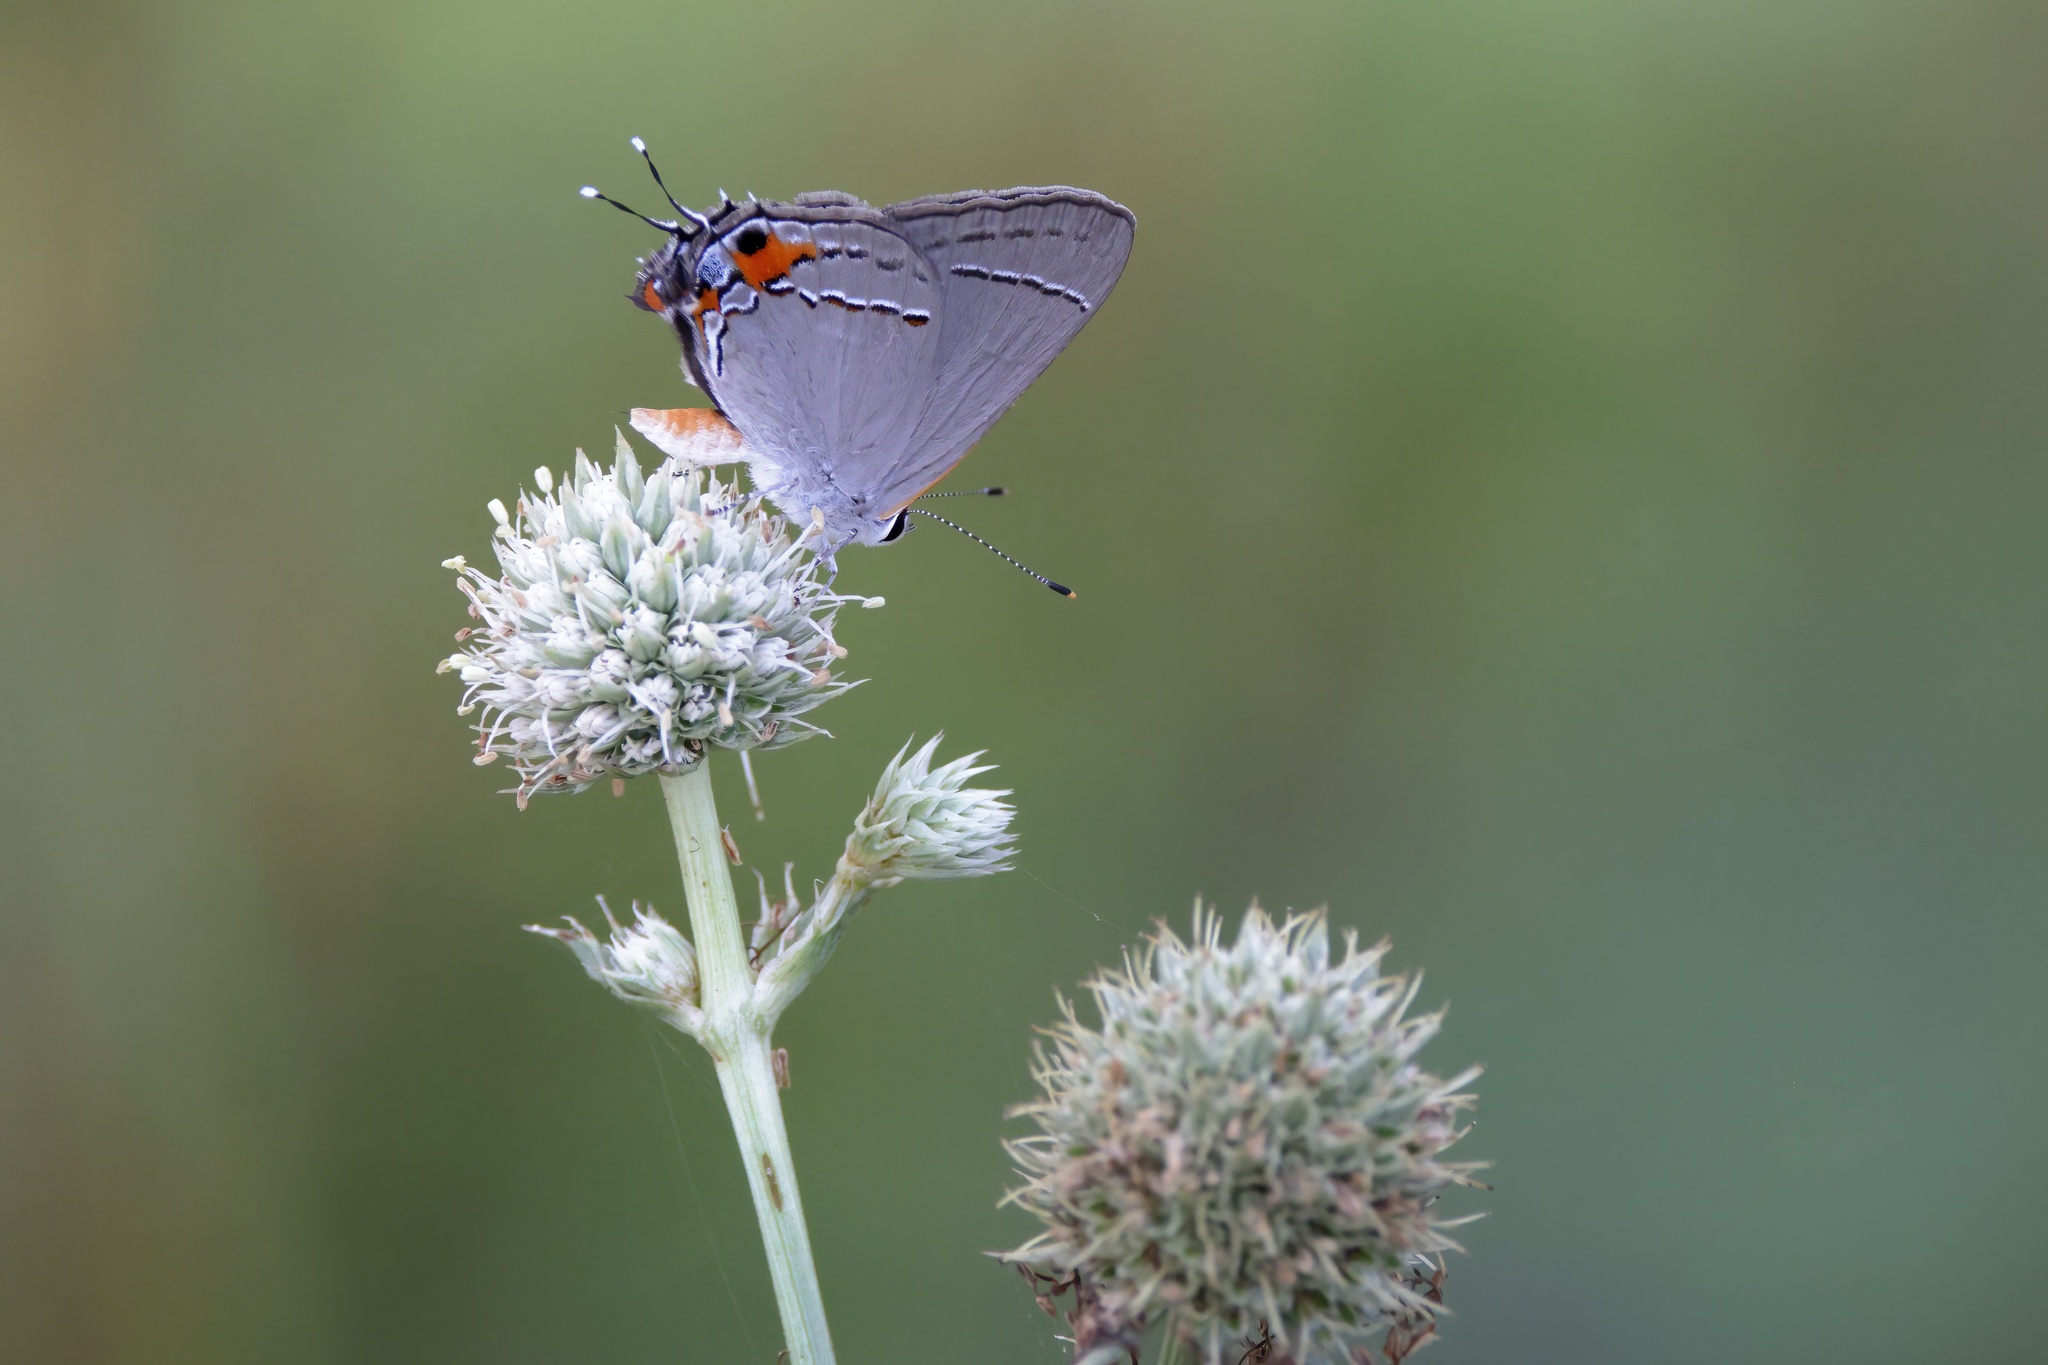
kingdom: Animalia
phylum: Arthropoda
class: Insecta
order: Lepidoptera
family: Lycaenidae
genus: Strymon
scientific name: Strymon melinus
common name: Gray hairstreak
